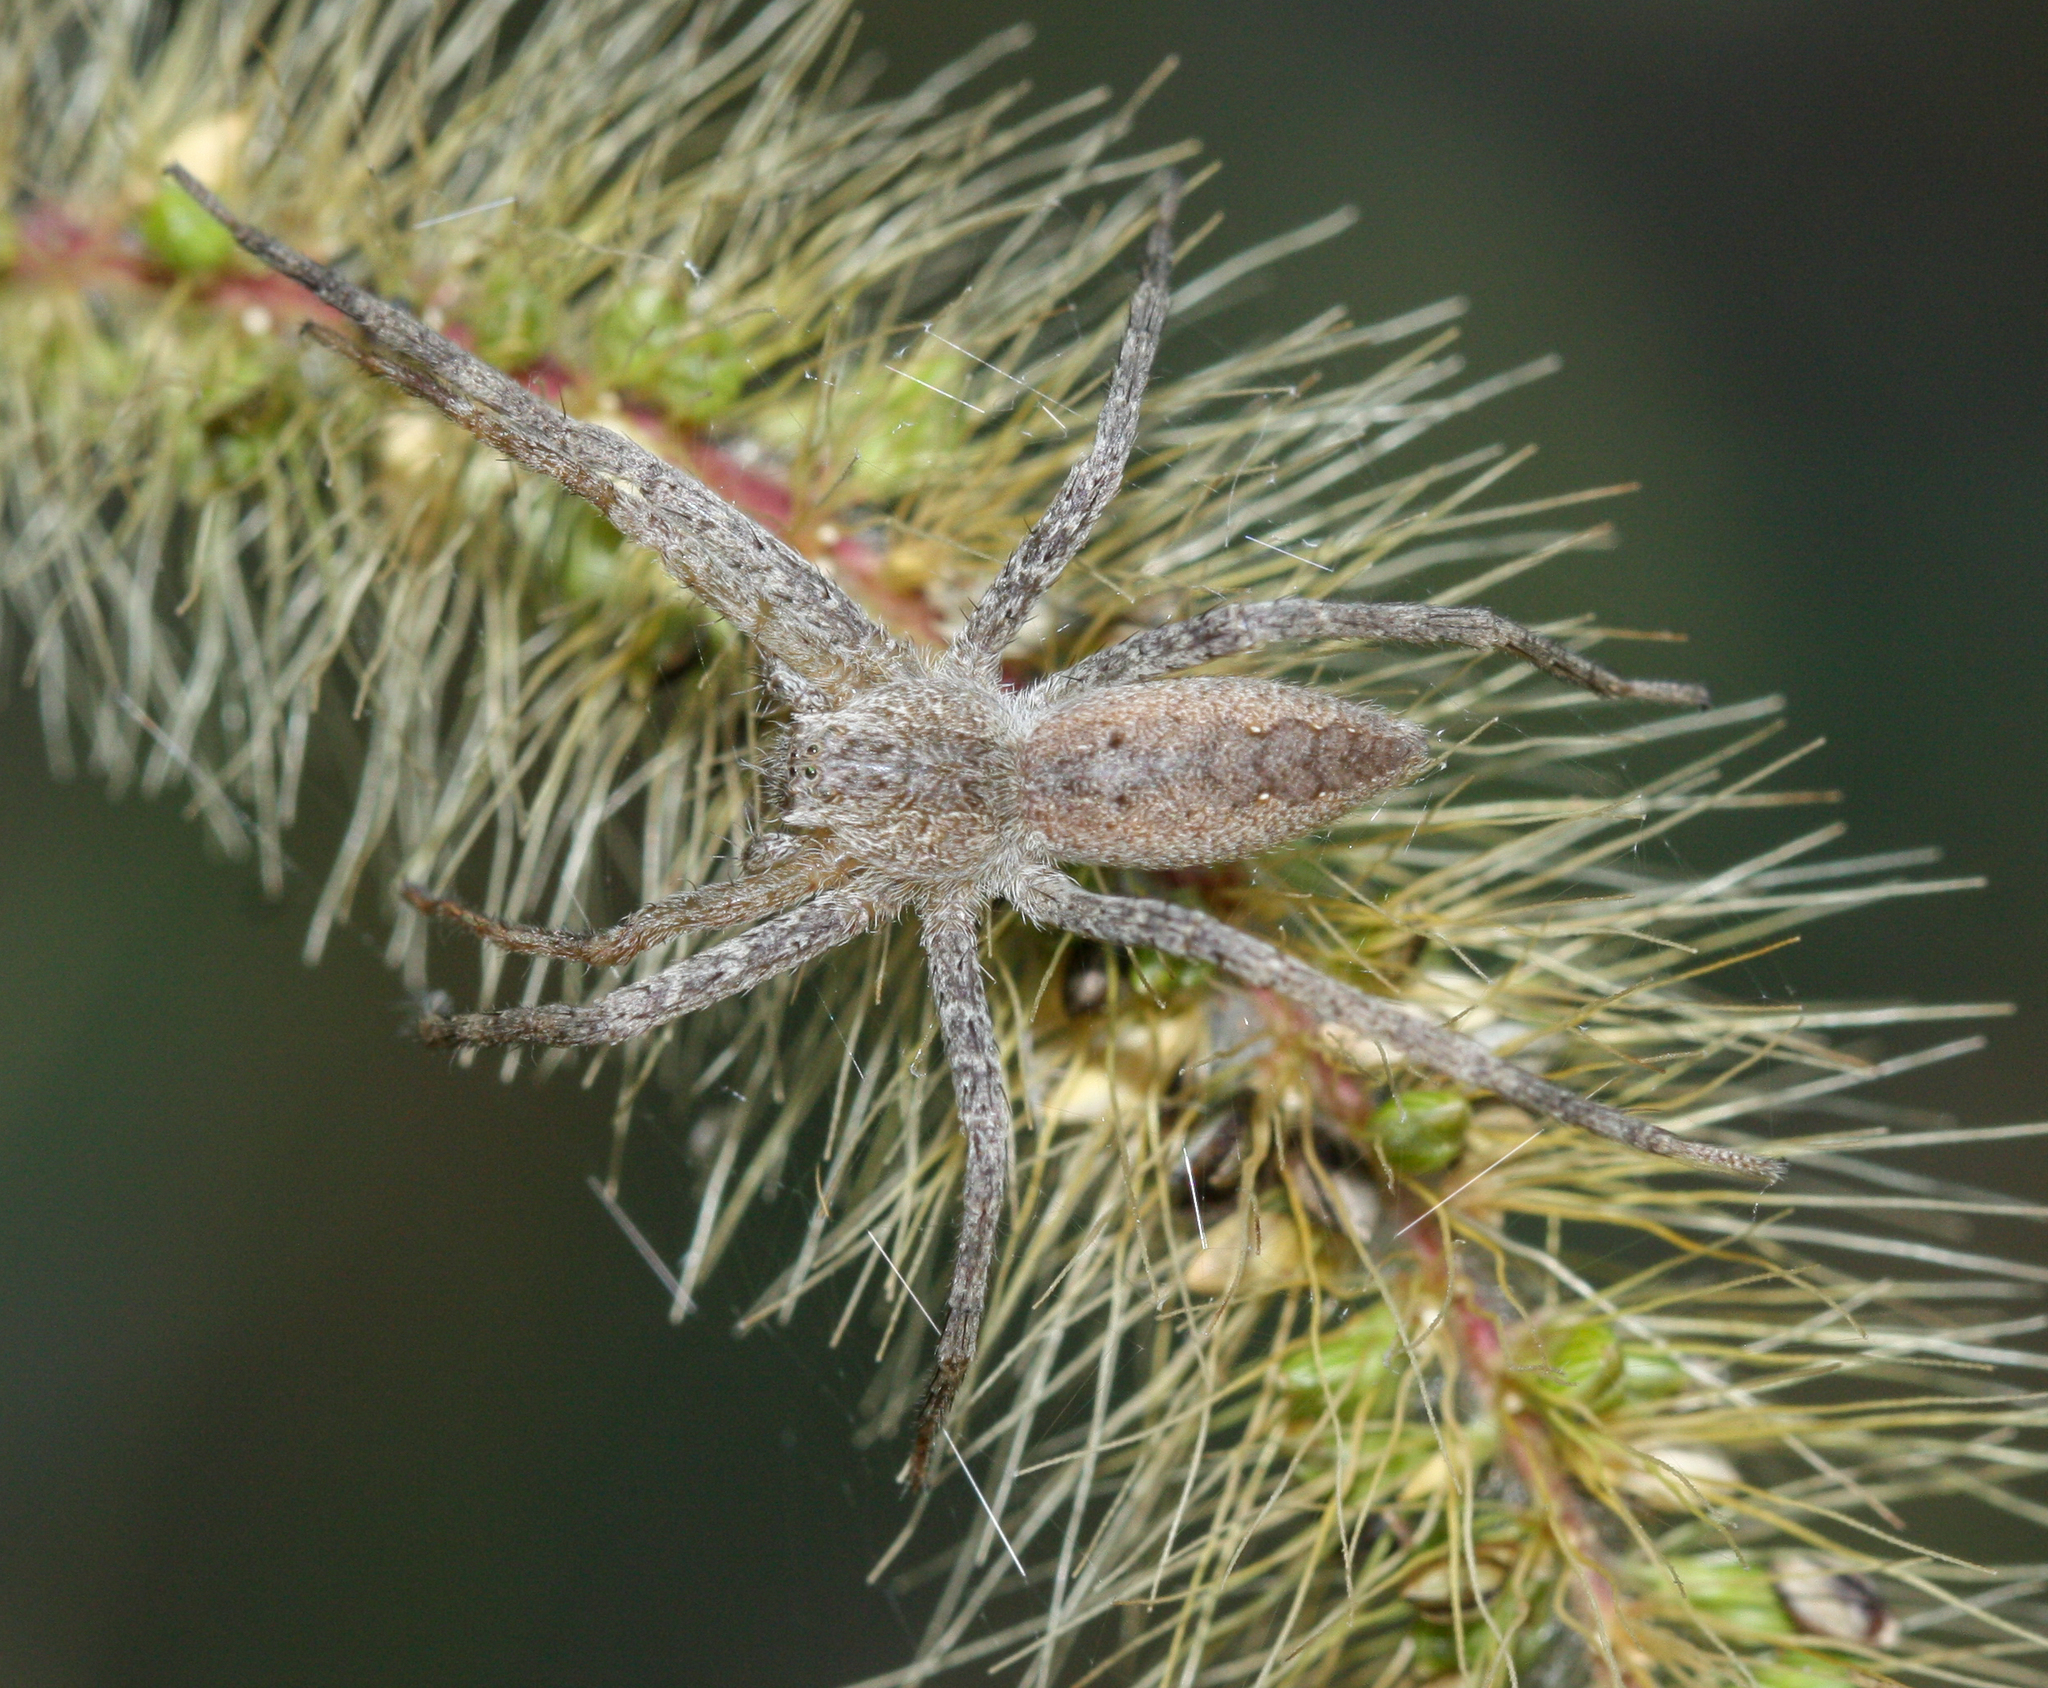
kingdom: Animalia
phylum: Arthropoda
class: Arachnida
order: Araneae
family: Pisauridae
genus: Pisaurina
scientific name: Pisaurina mira
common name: American nursery web spider
